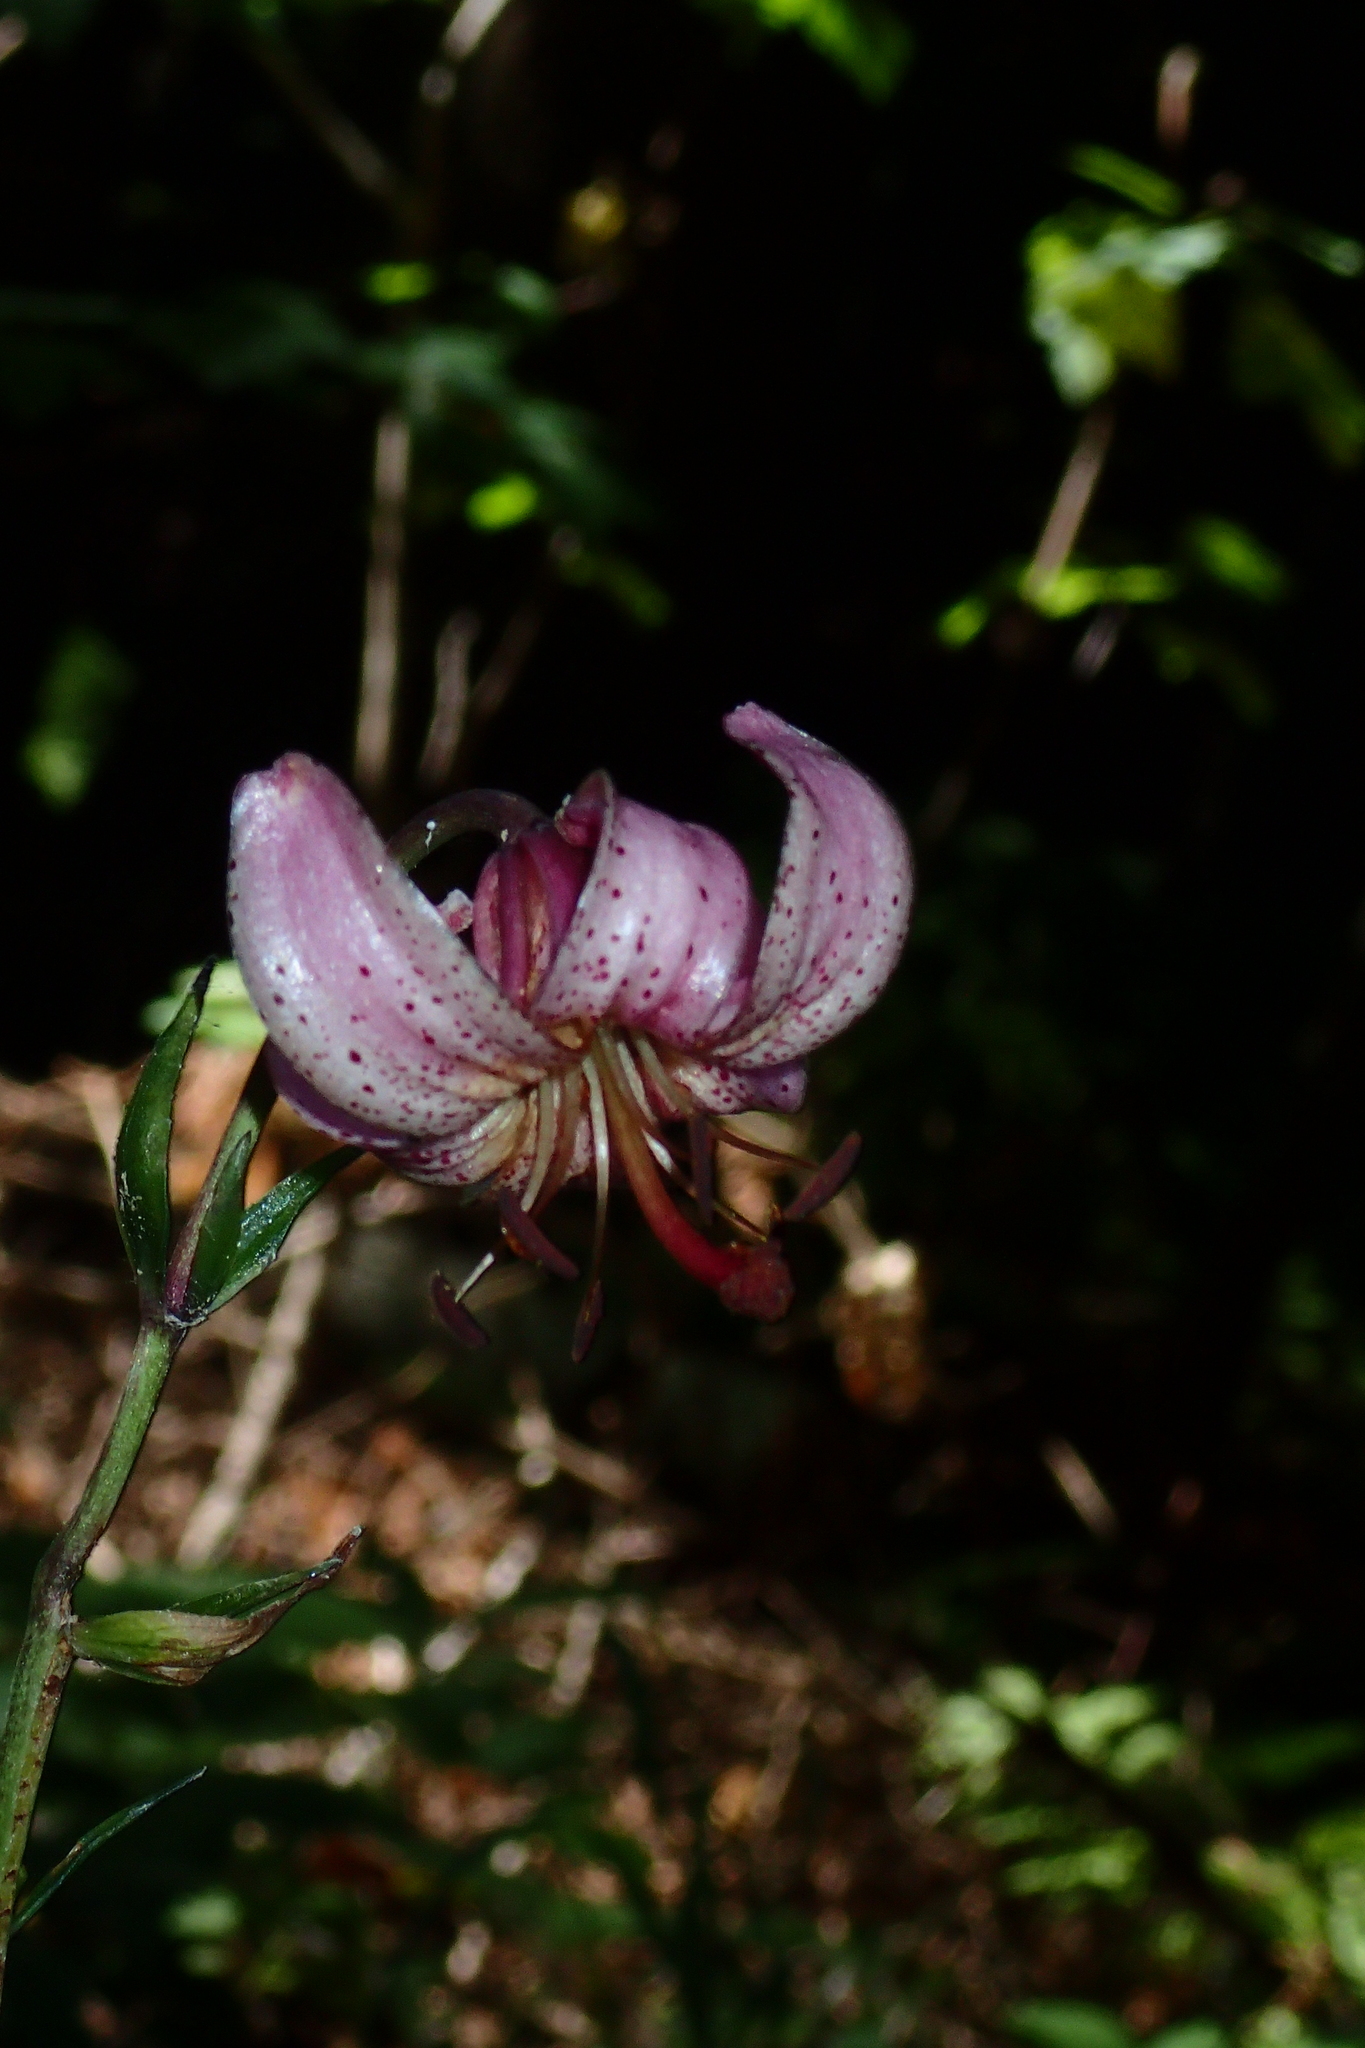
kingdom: Plantae
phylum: Tracheophyta
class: Liliopsida
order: Liliales
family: Liliaceae
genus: Lilium
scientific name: Lilium martagon
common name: Martagon lily
